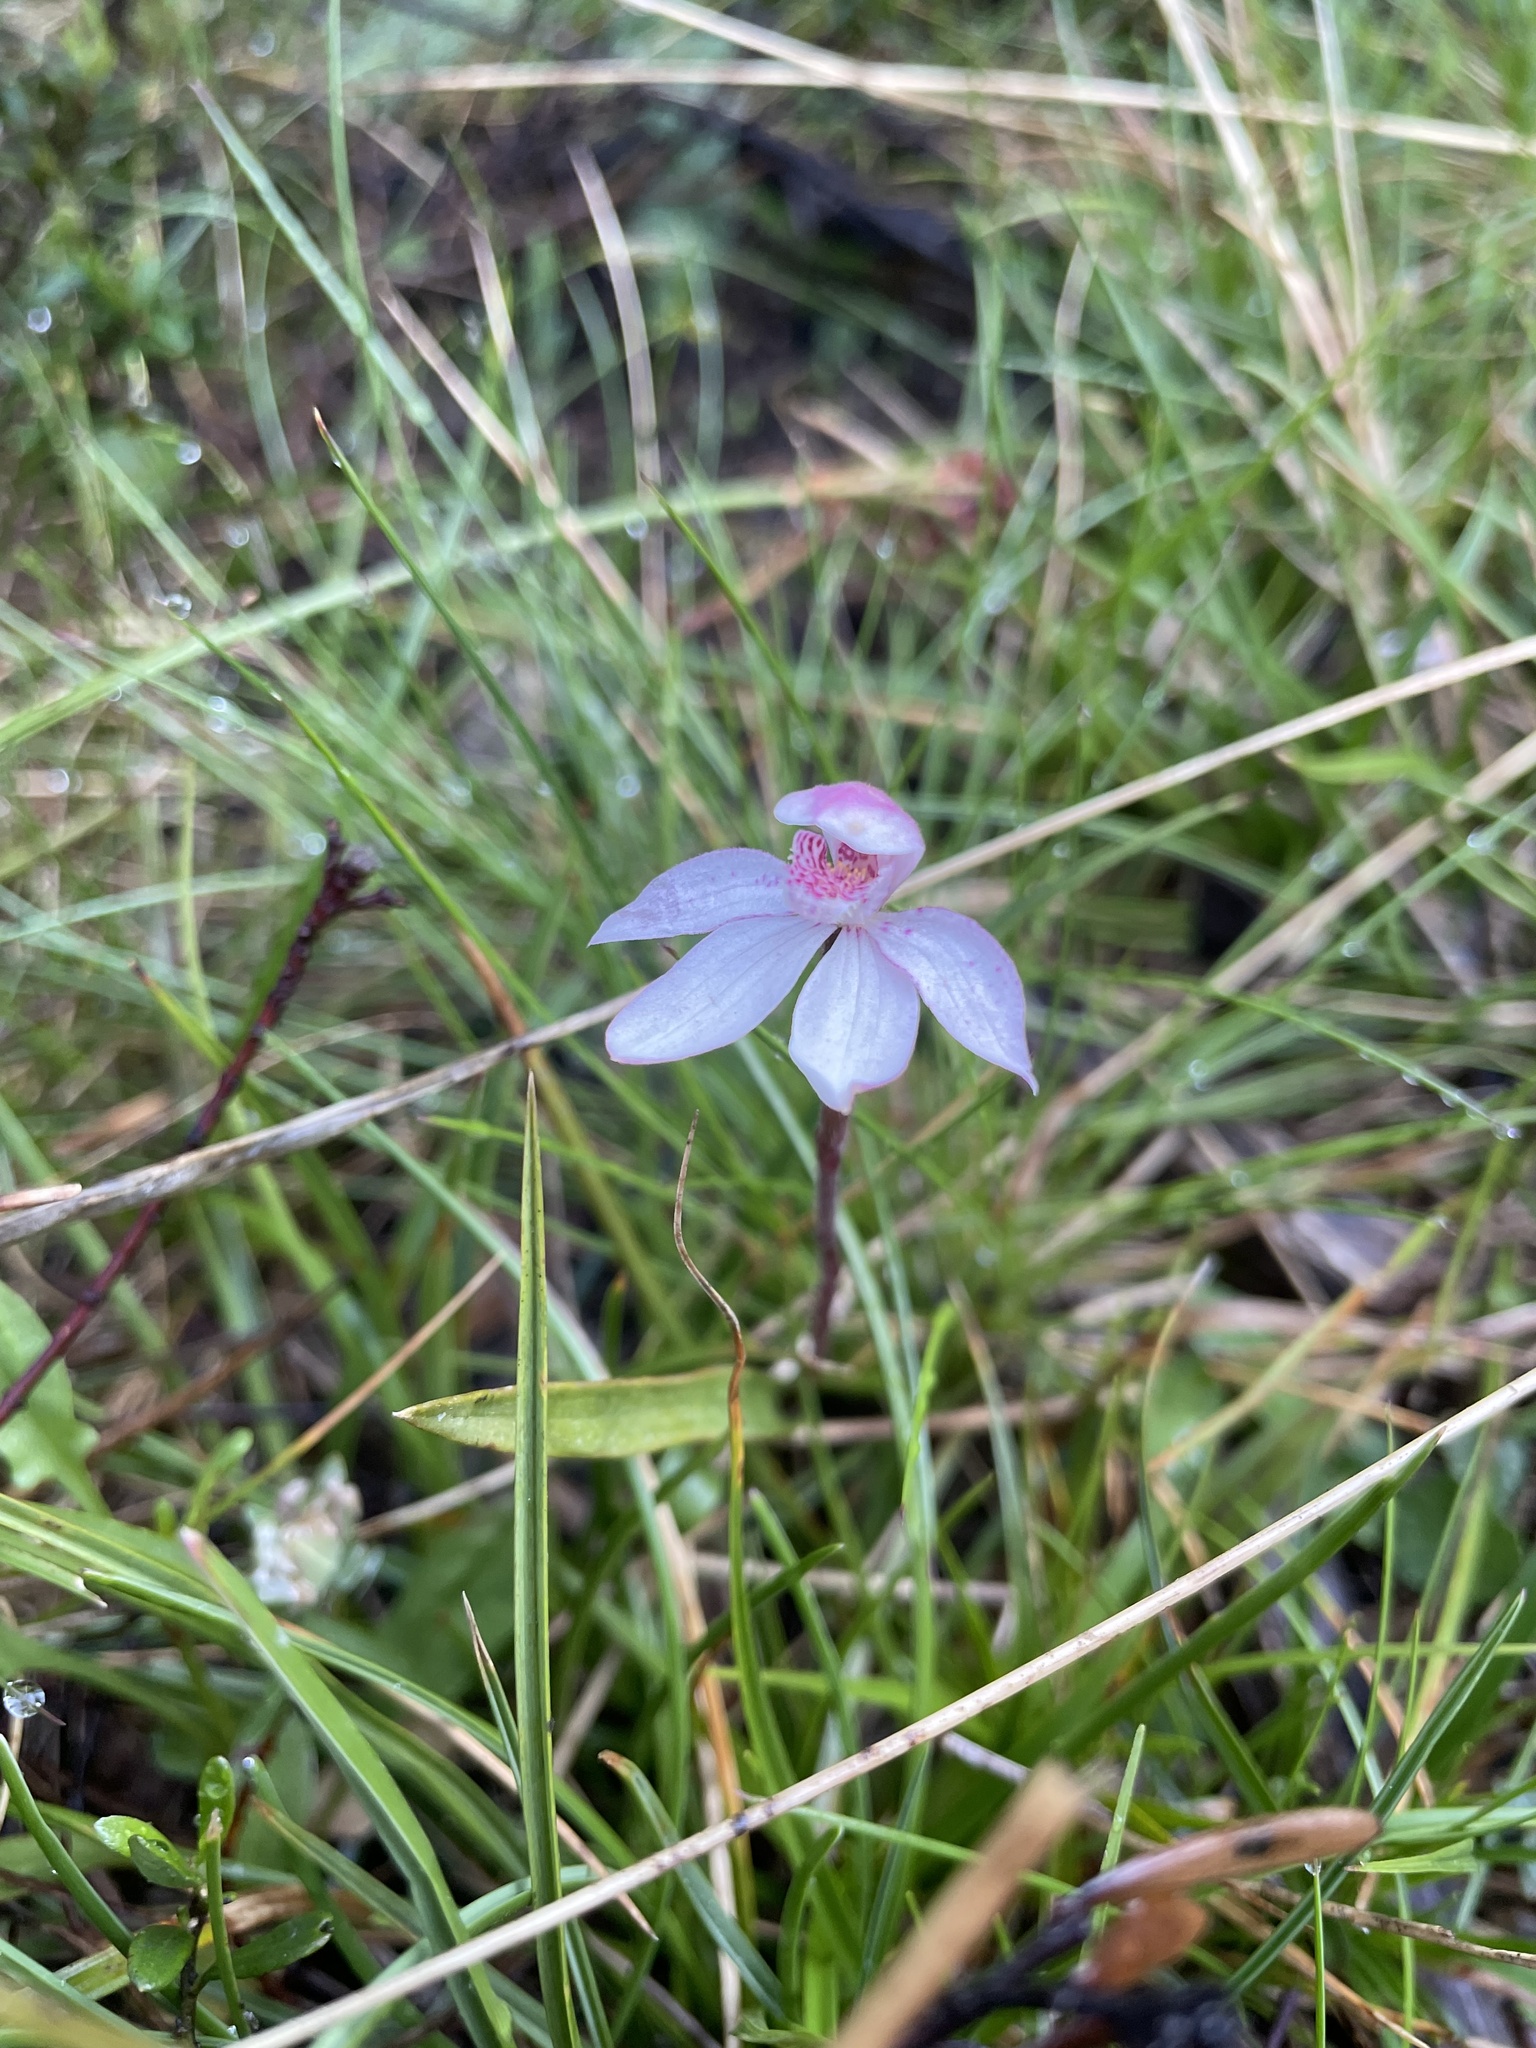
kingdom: Plantae
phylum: Tracheophyta
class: Liliopsida
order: Asparagales
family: Orchidaceae
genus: Caladenia
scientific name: Caladenia alpina
